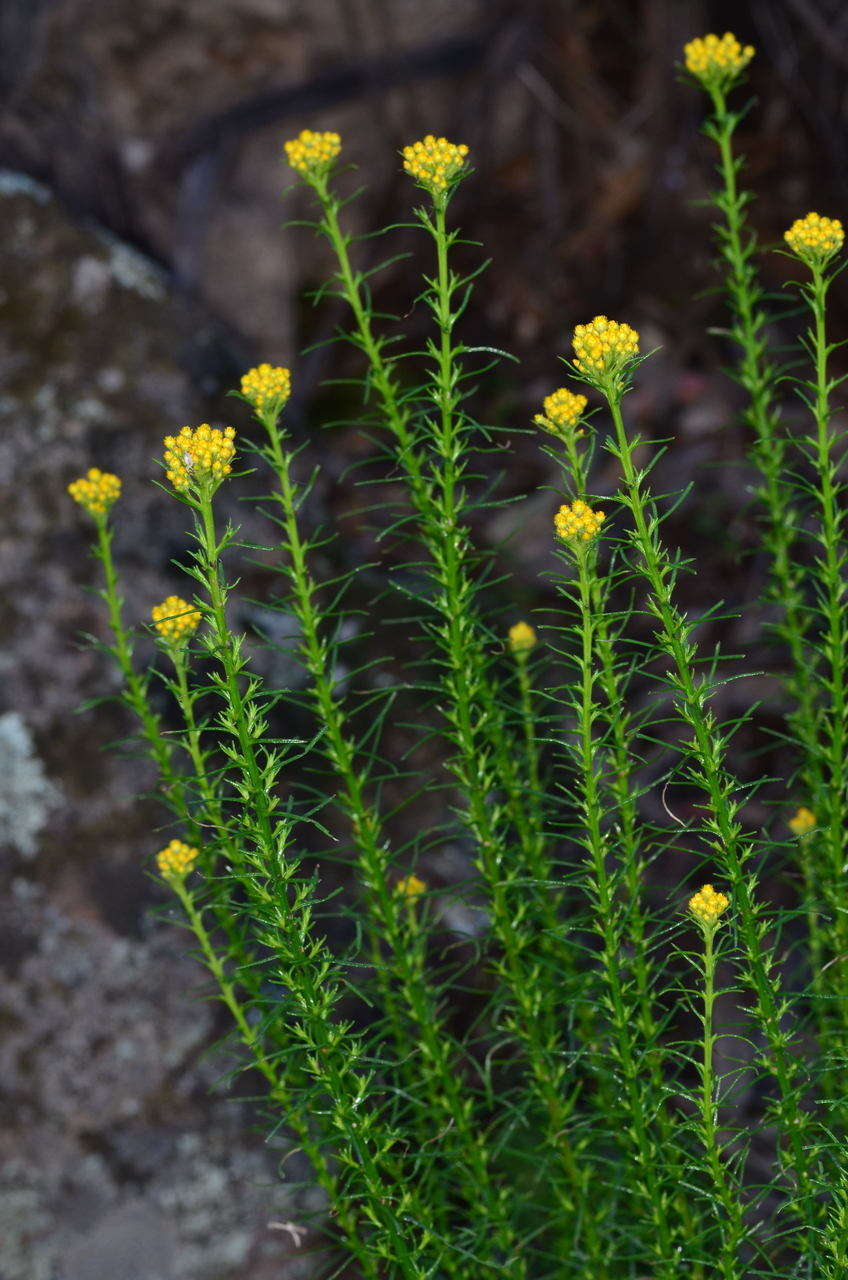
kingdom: Plantae
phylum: Tracheophyta
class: Magnoliopsida
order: Asterales
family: Asteraceae
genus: Chrysocephalum
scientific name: Chrysocephalum semipapposum
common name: Clustered everlasting
